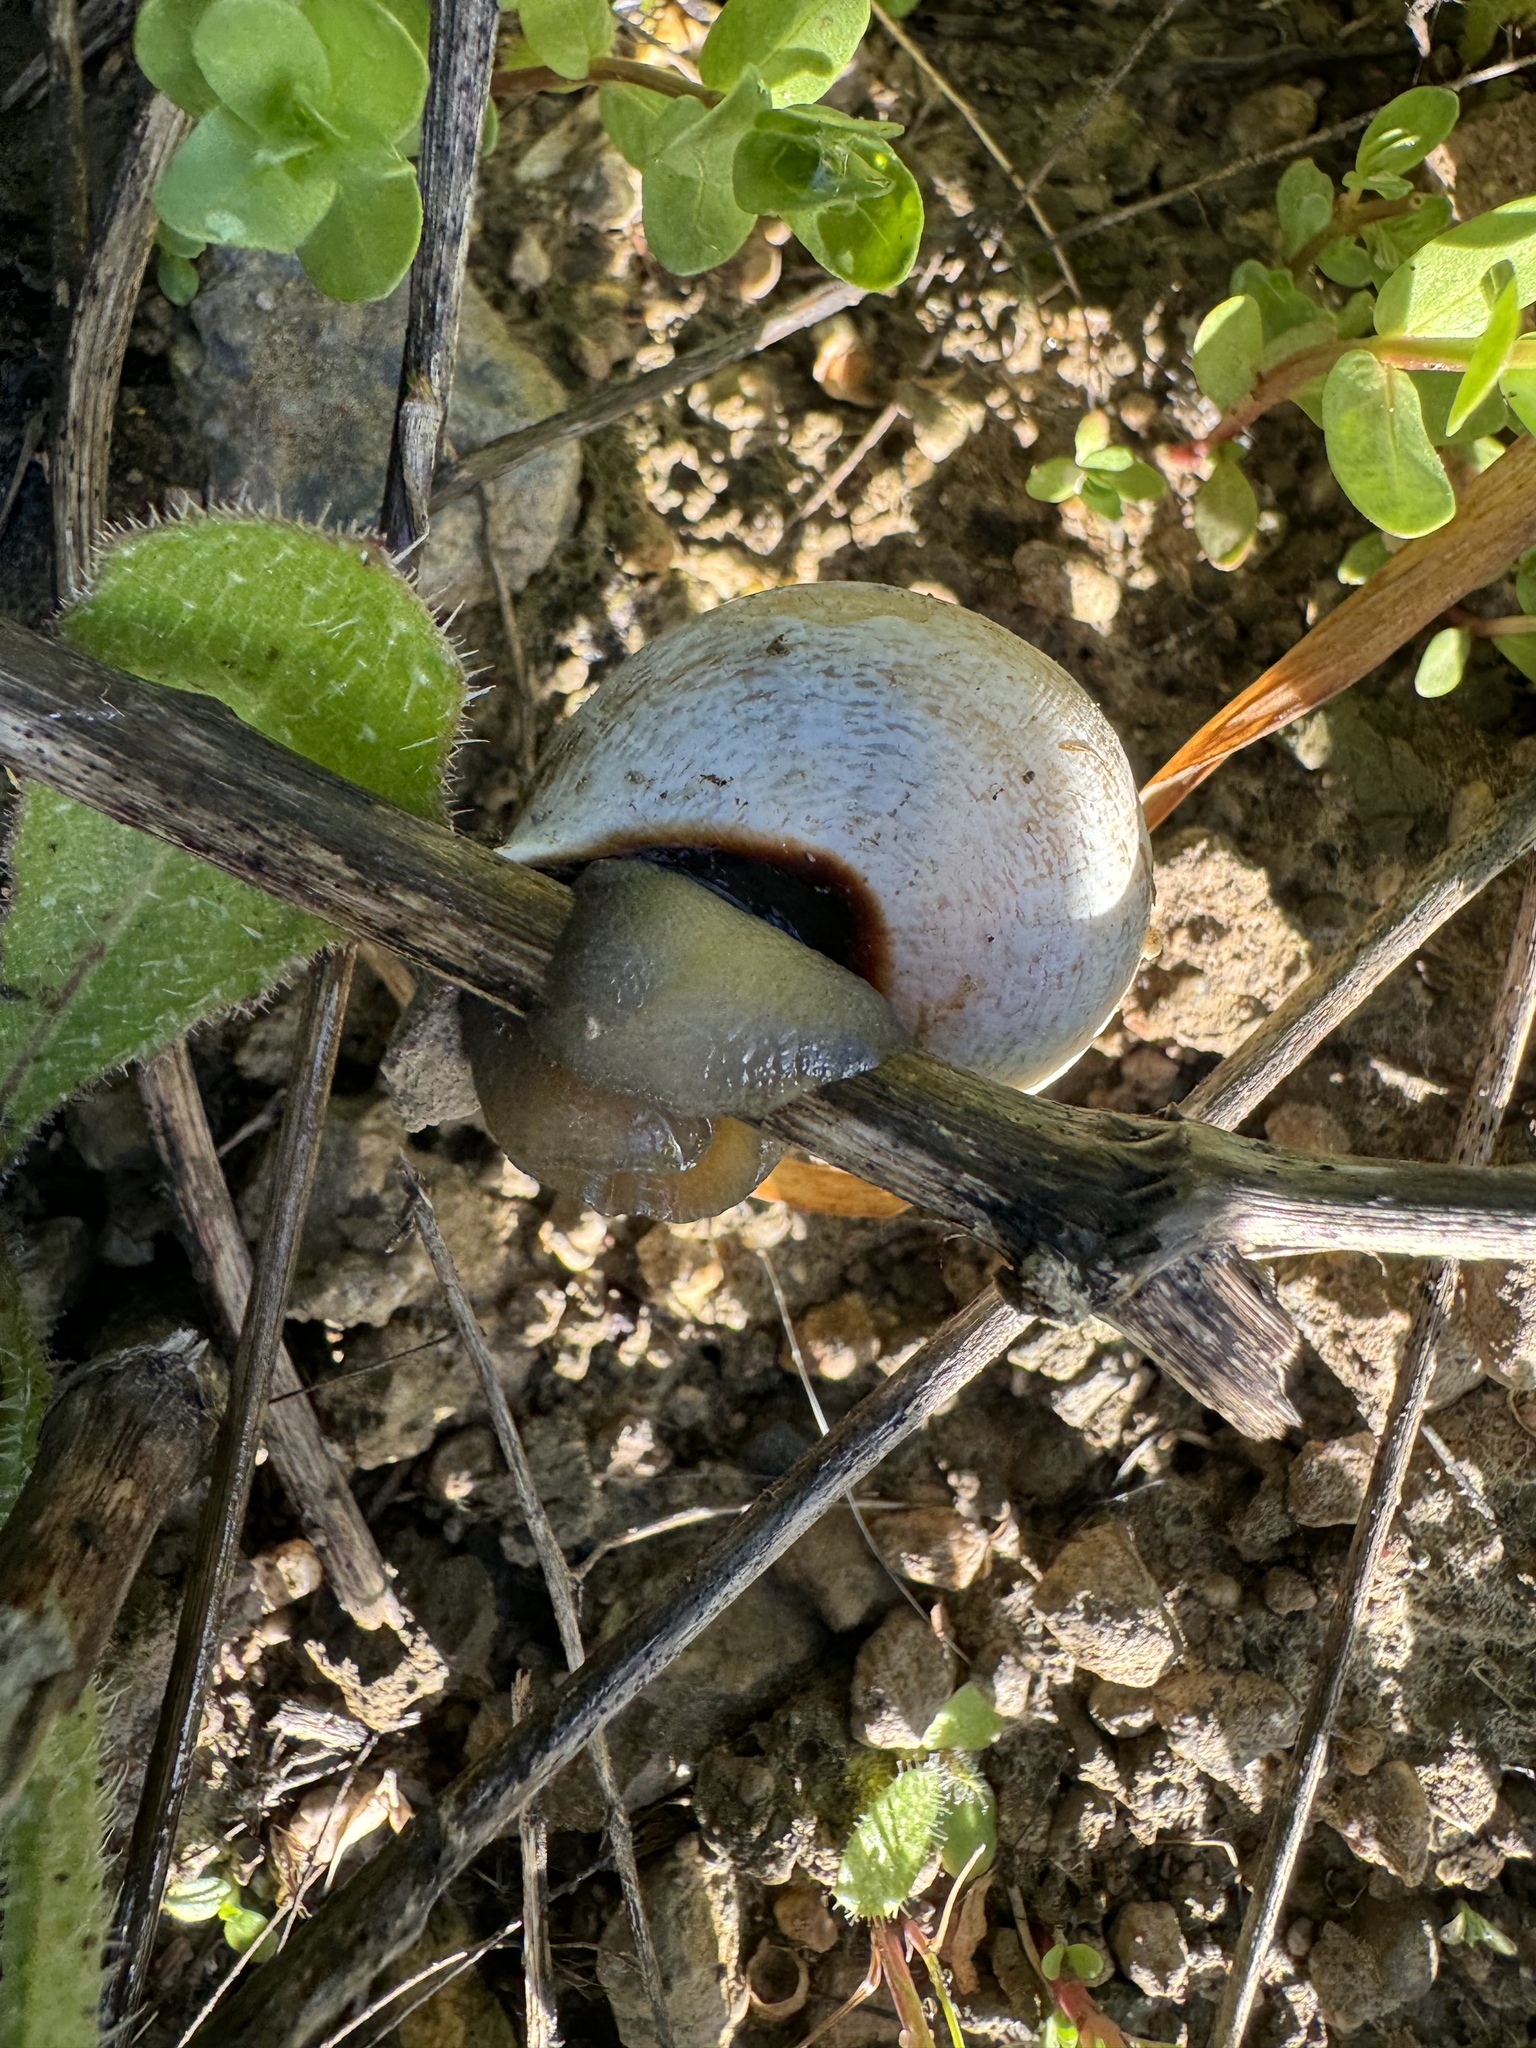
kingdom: Animalia
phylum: Mollusca
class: Gastropoda
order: Stylommatophora
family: Helicidae
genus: Otala
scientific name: Otala lactea
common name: Milk snail
